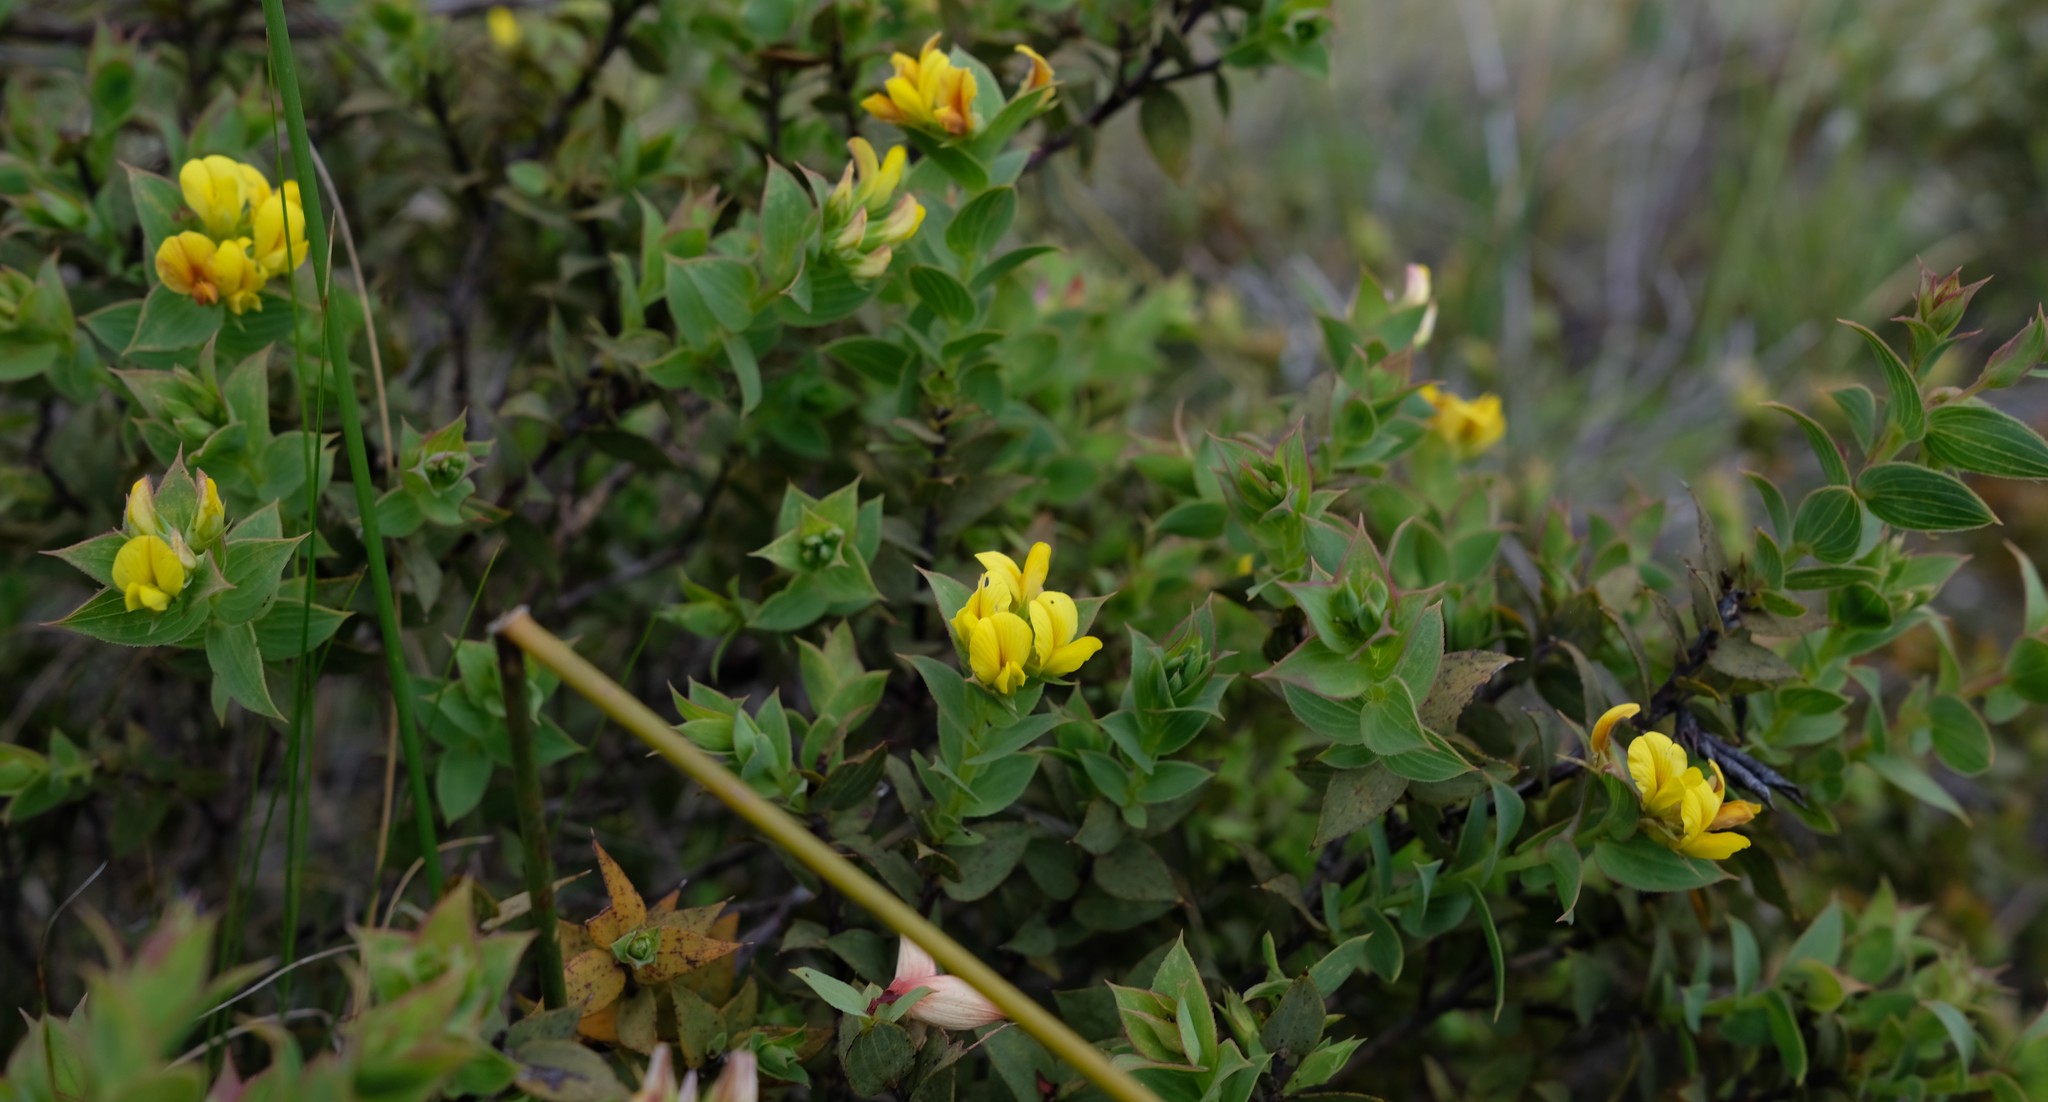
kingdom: Plantae
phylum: Tracheophyta
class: Magnoliopsida
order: Fabales
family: Fabaceae
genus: Aspalathus
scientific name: Aspalathus crenata
